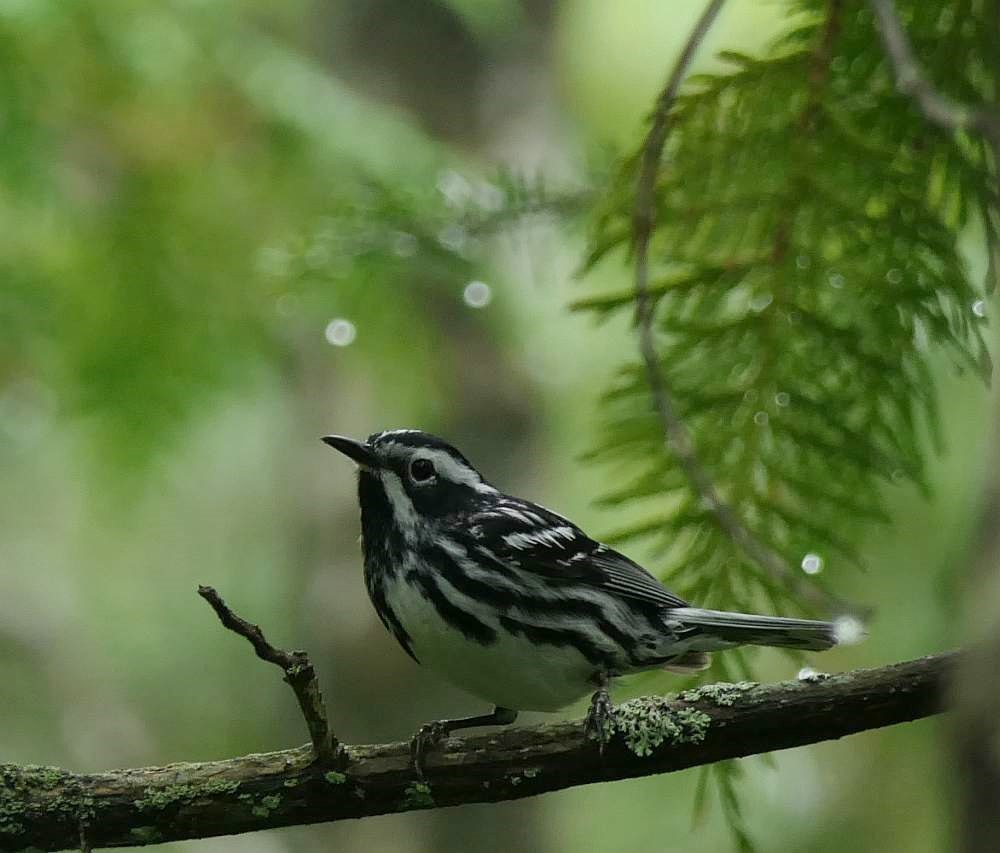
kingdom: Animalia
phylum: Chordata
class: Aves
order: Passeriformes
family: Parulidae
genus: Mniotilta
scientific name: Mniotilta varia
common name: Black-and-white warbler
